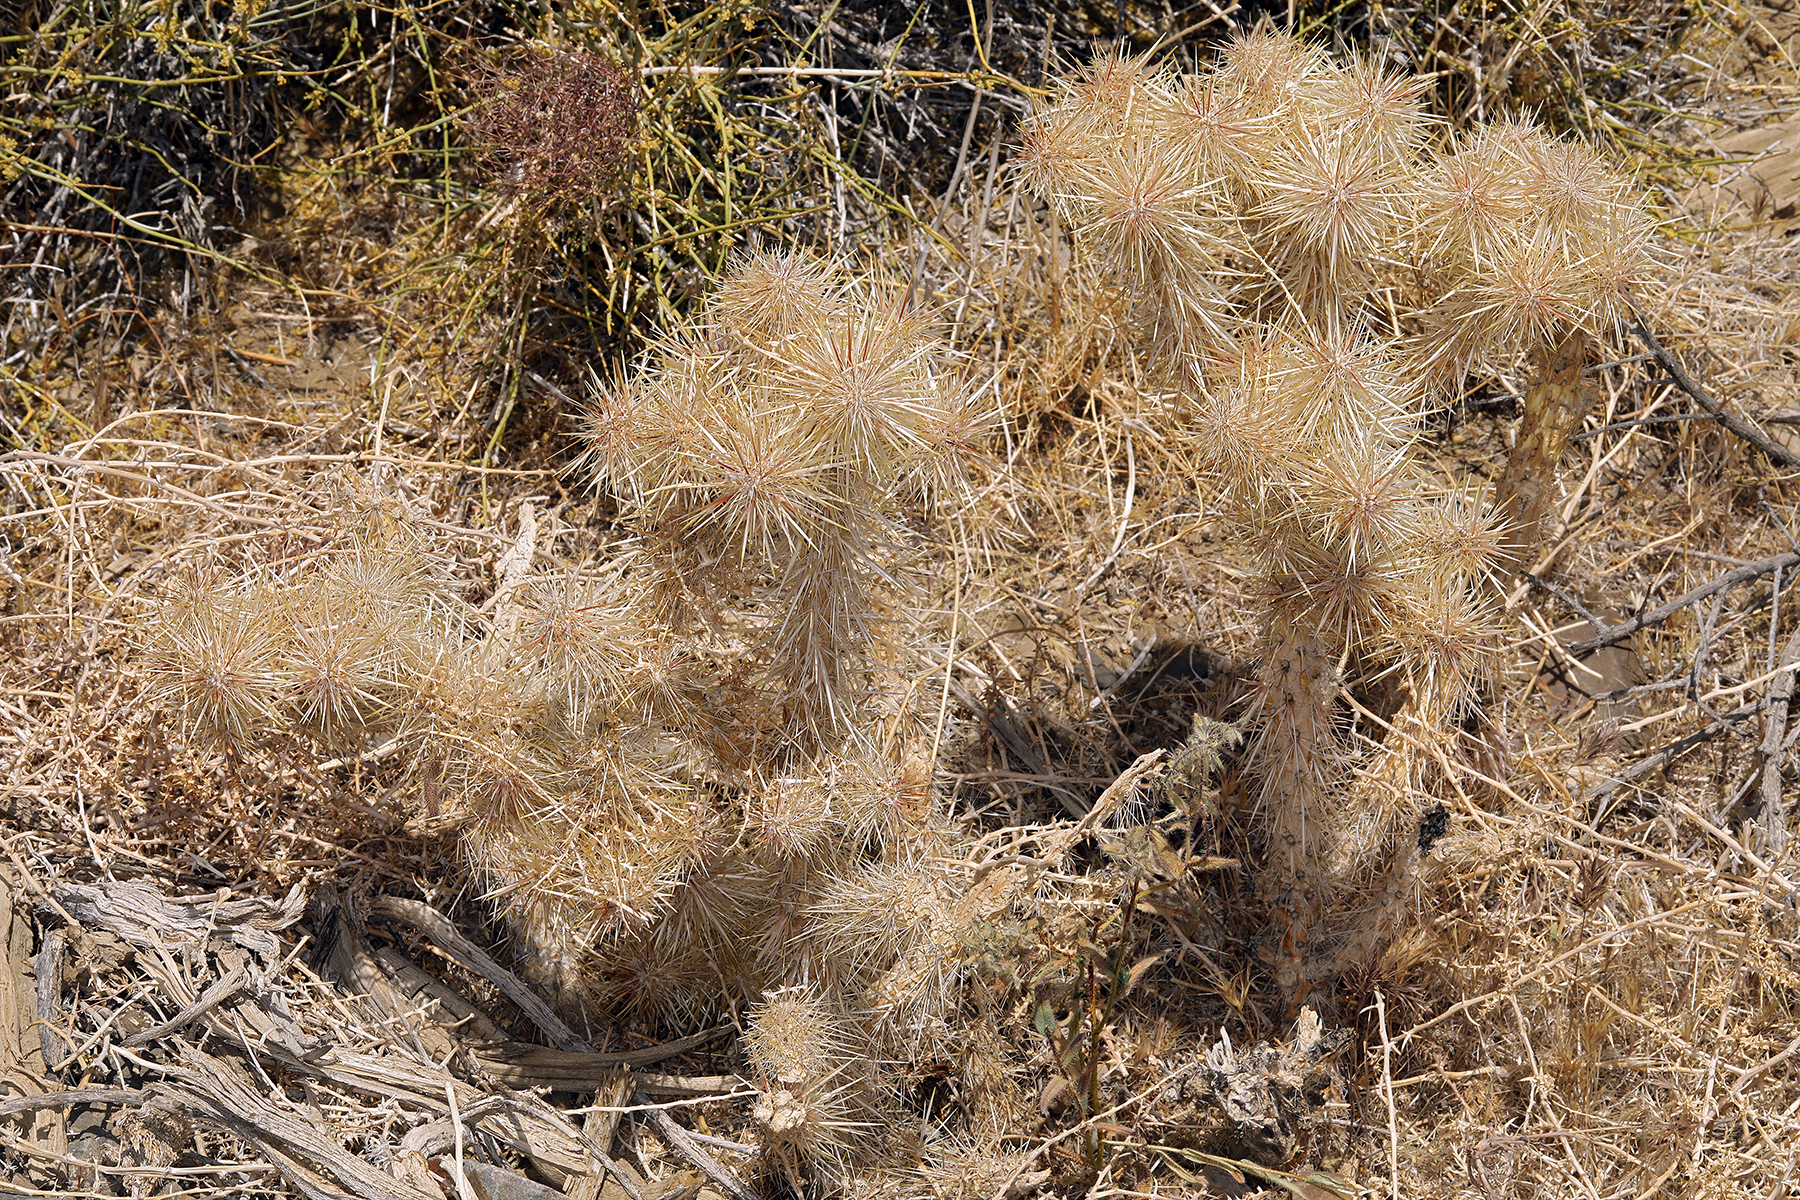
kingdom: Plantae
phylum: Tracheophyta
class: Magnoliopsida
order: Caryophyllales
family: Cactaceae
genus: Cylindropuntia
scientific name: Cylindropuntia echinocarpa
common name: Ground cholla
